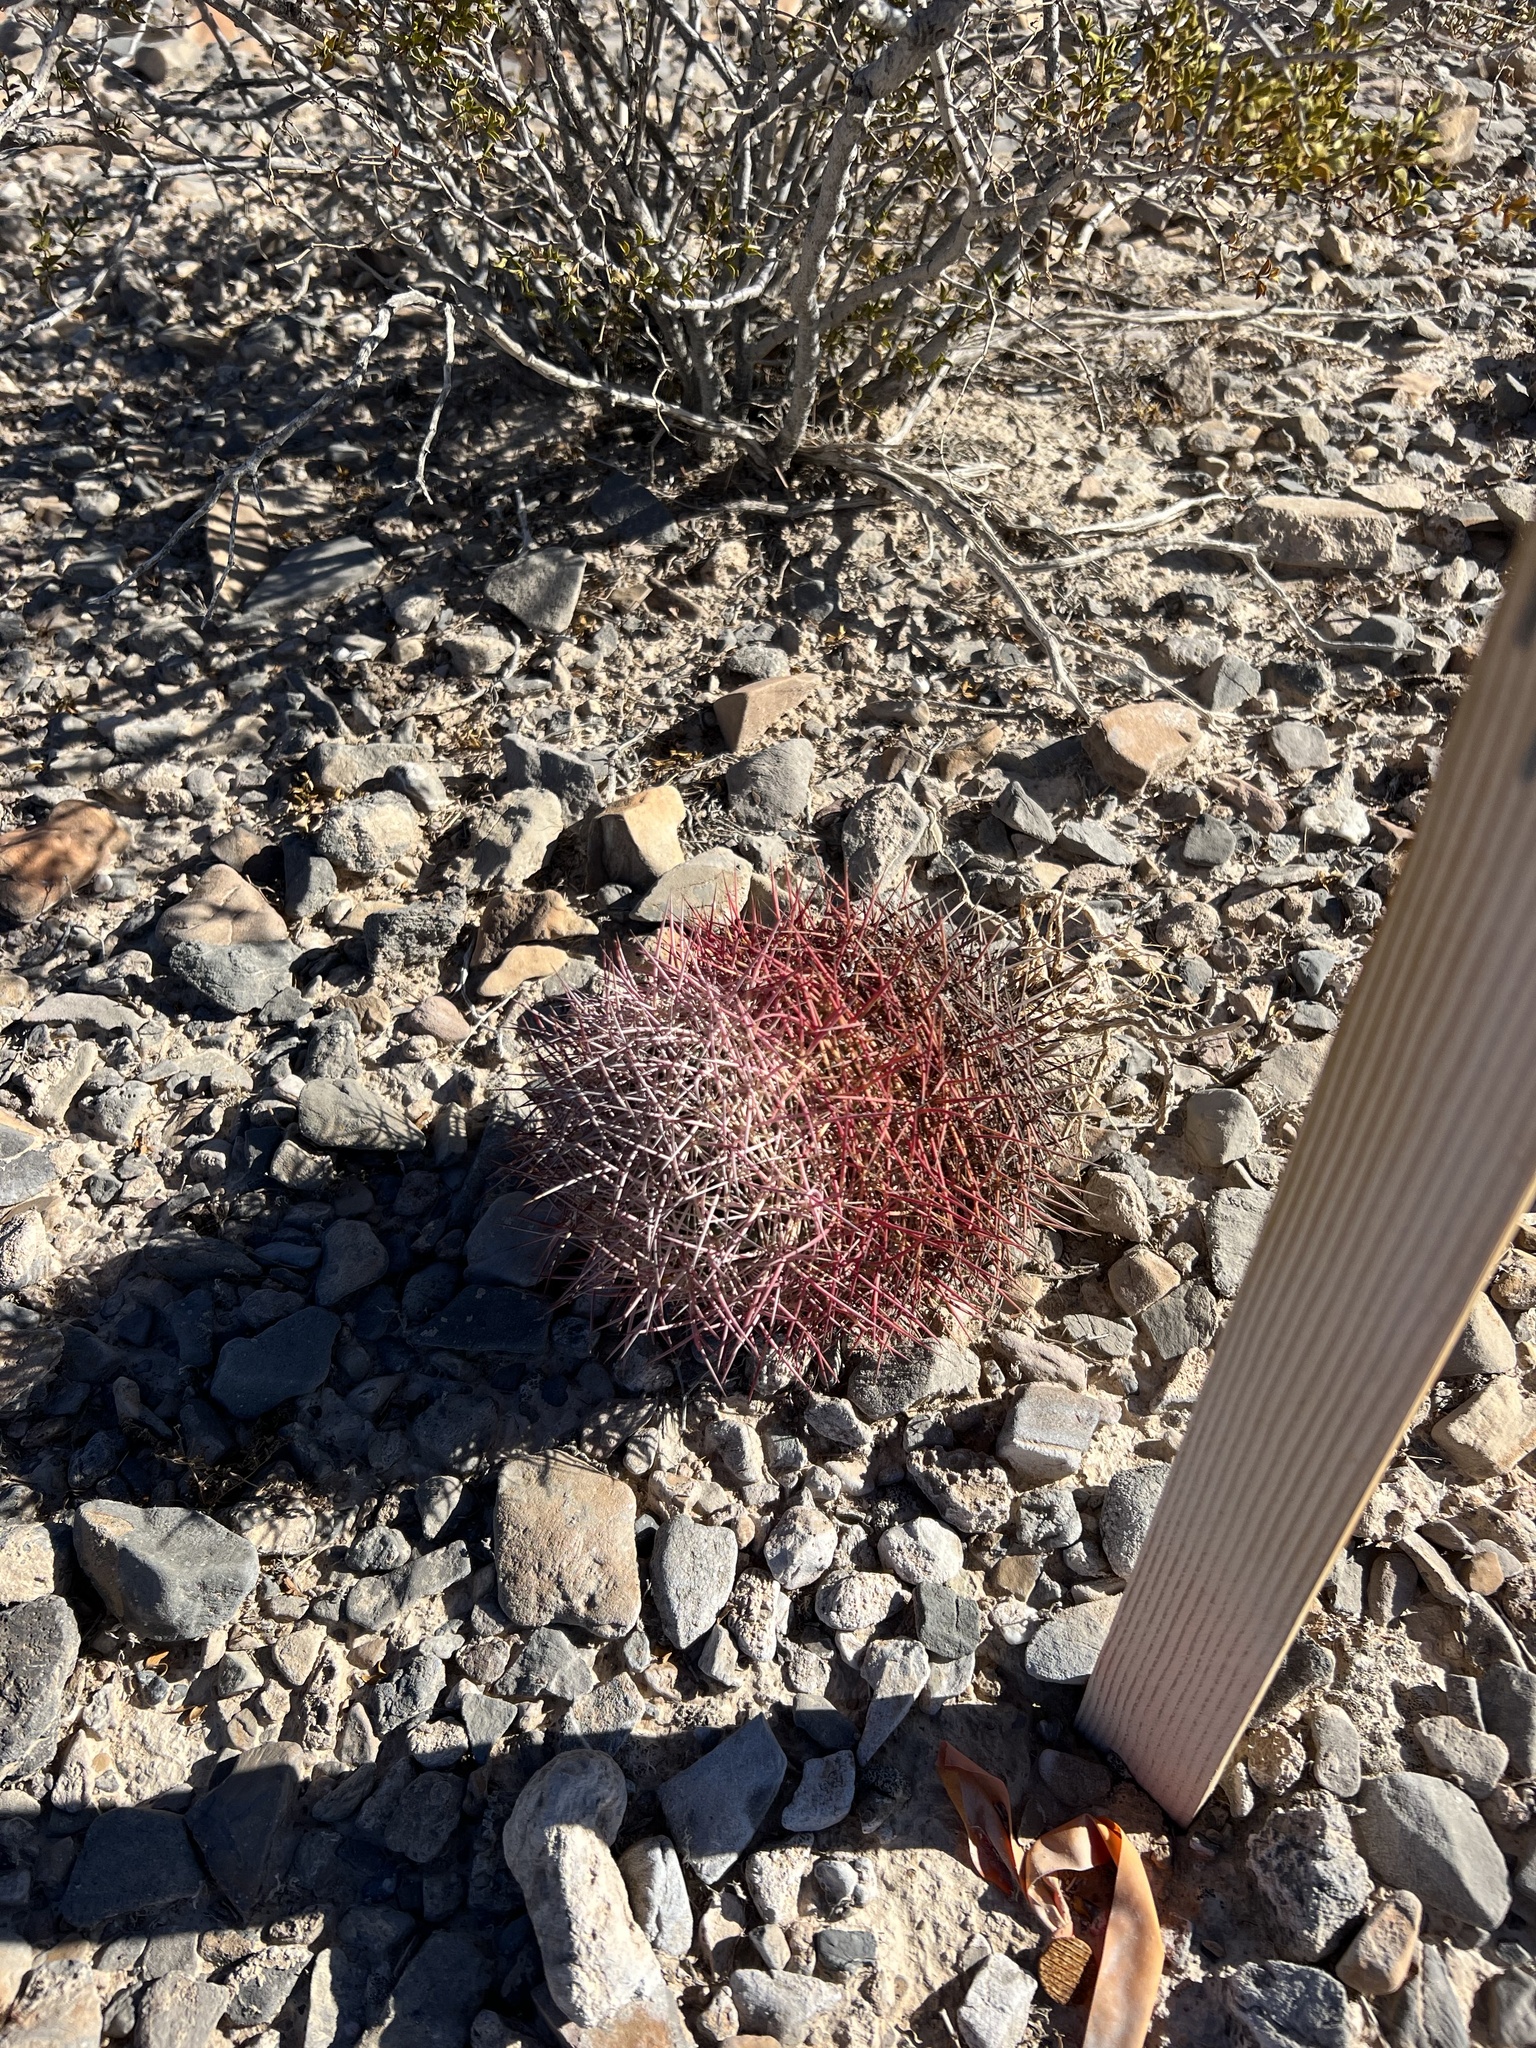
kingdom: Plantae
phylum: Tracheophyta
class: Magnoliopsida
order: Caryophyllales
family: Cactaceae
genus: Sclerocactus
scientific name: Sclerocactus johnsonii
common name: Eight-spine fishhook cactus
